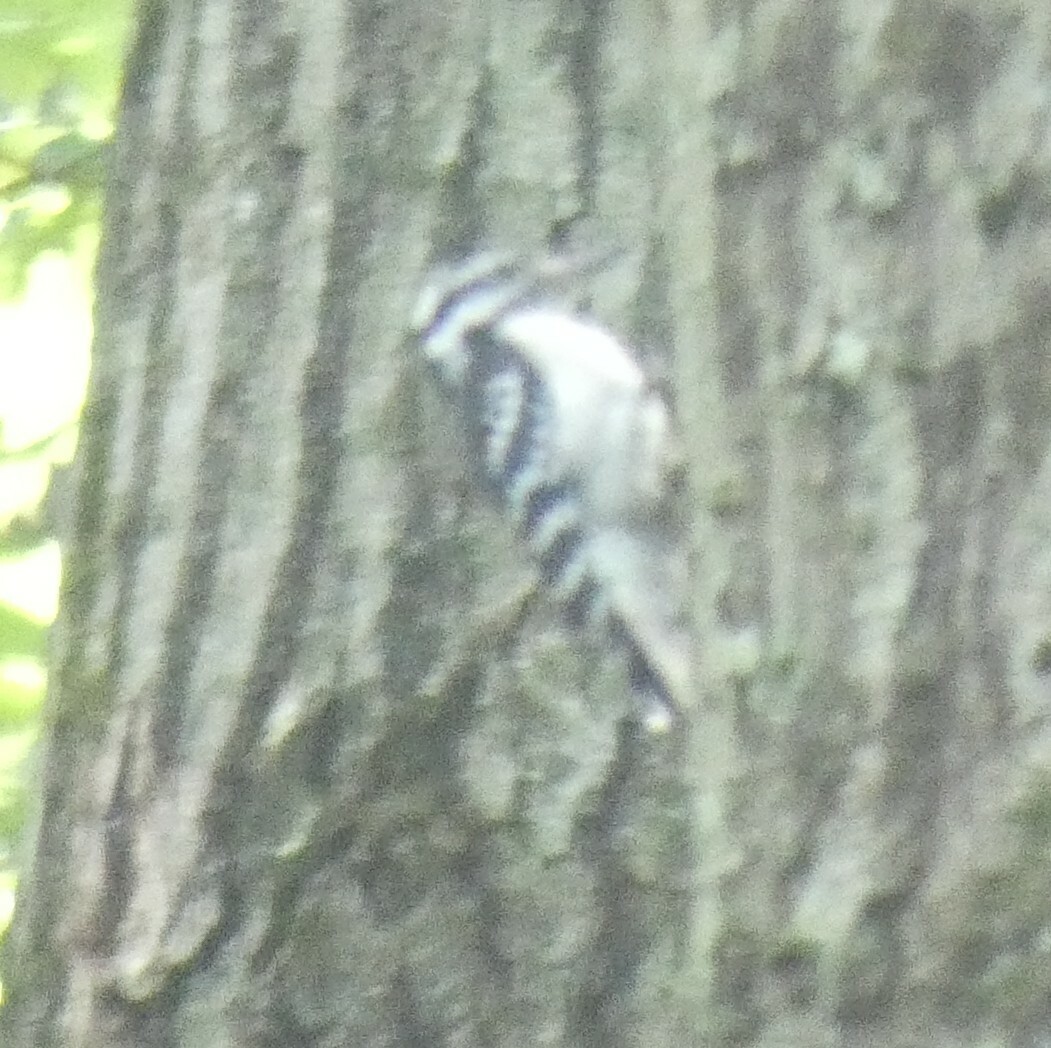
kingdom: Animalia
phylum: Chordata
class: Aves
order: Piciformes
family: Picidae
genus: Dryobates
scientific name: Dryobates pubescens
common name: Downy woodpecker
